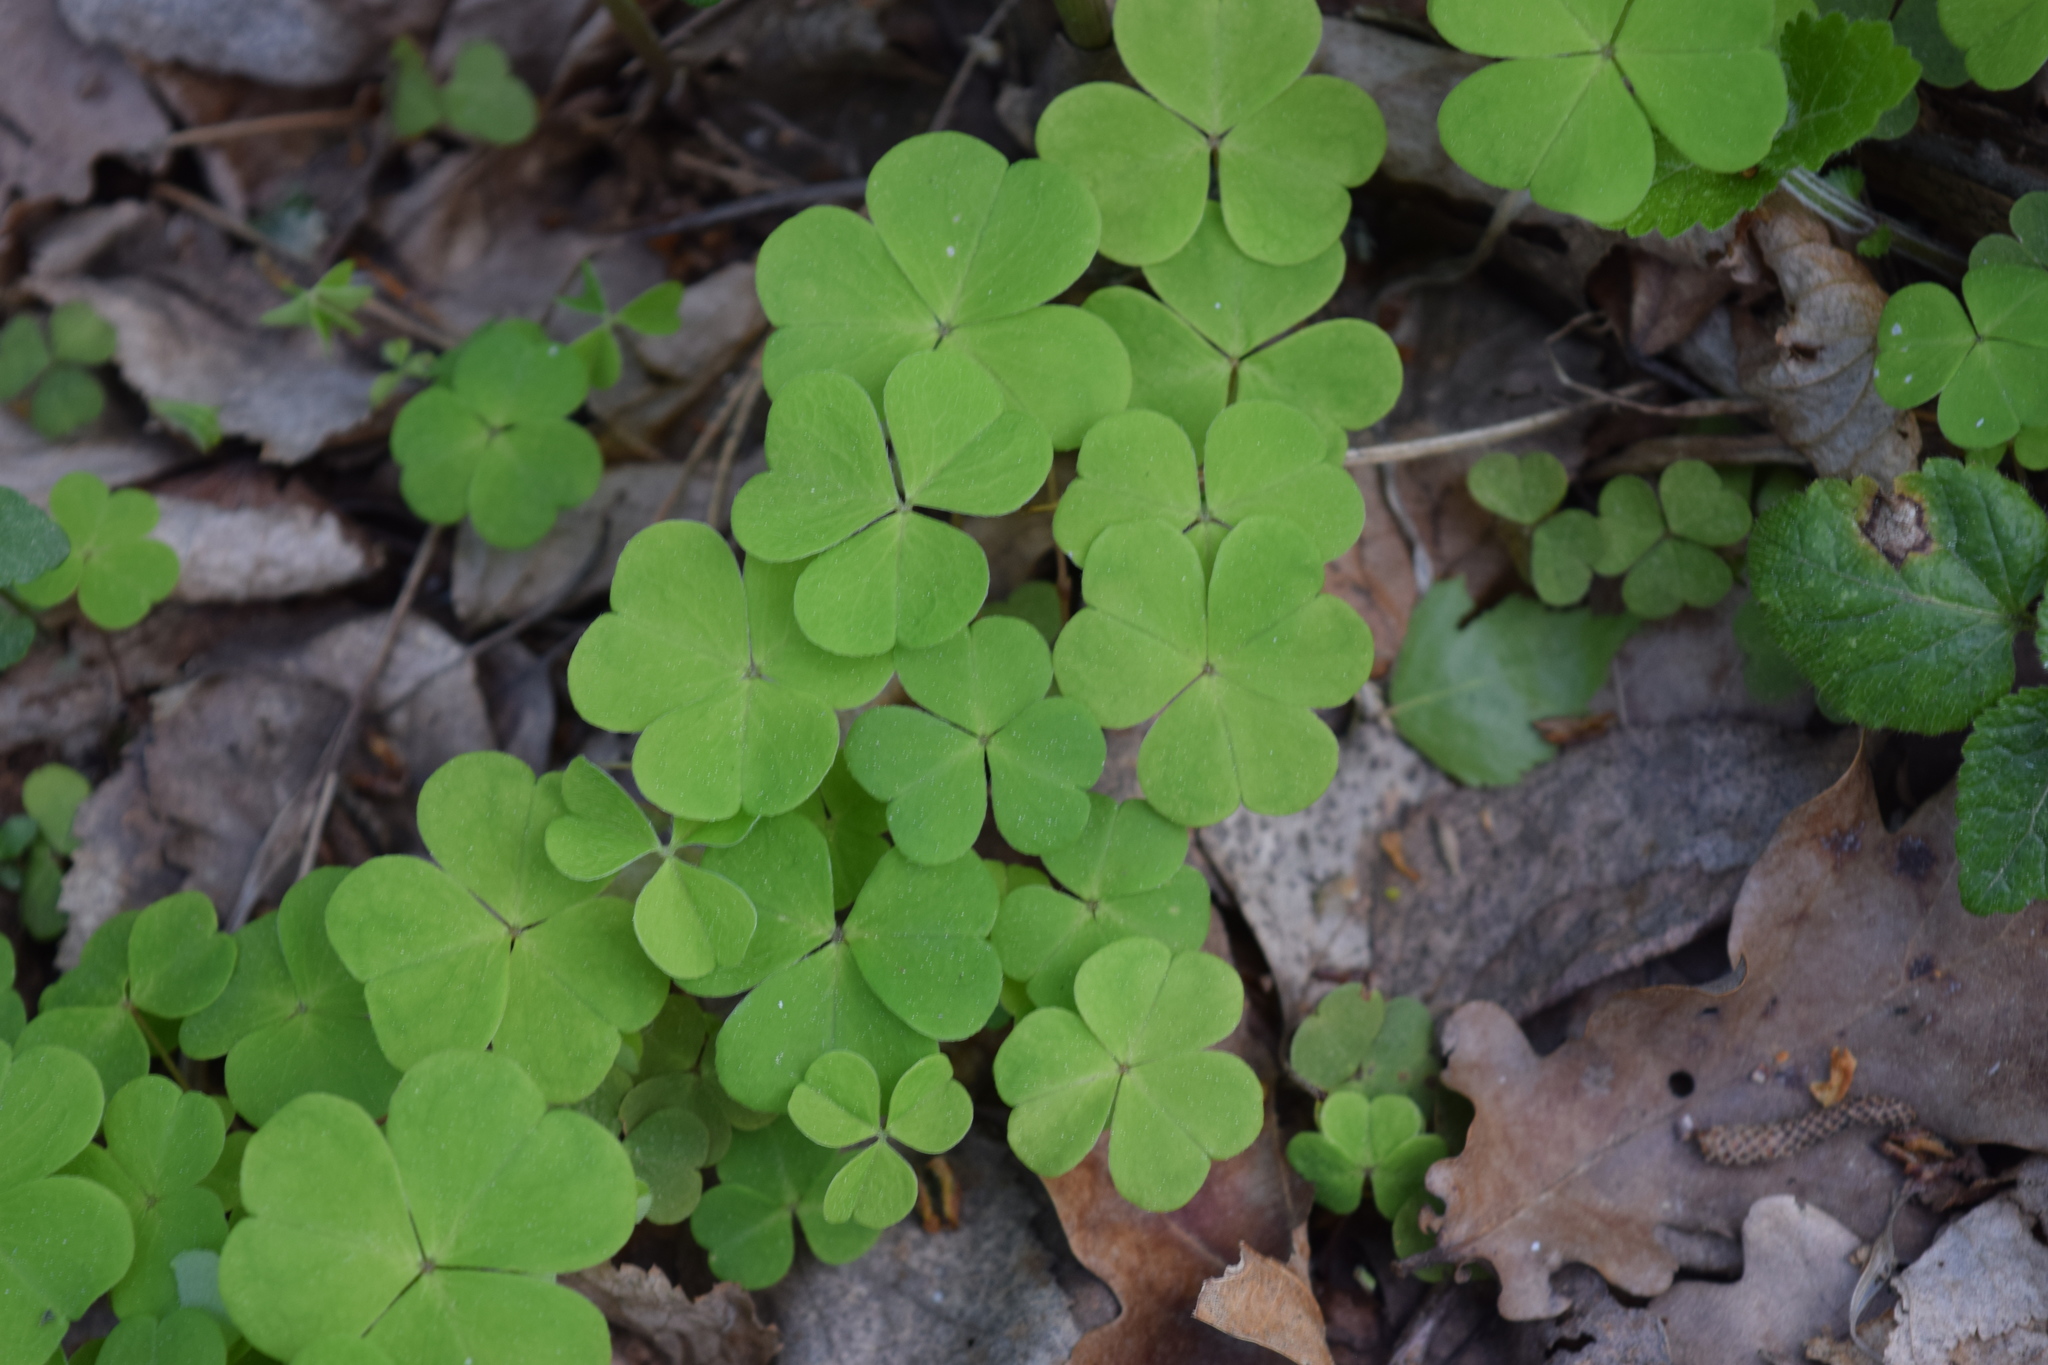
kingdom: Plantae
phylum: Tracheophyta
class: Magnoliopsida
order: Oxalidales
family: Oxalidaceae
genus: Oxalis
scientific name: Oxalis acetosella
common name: Wood-sorrel
